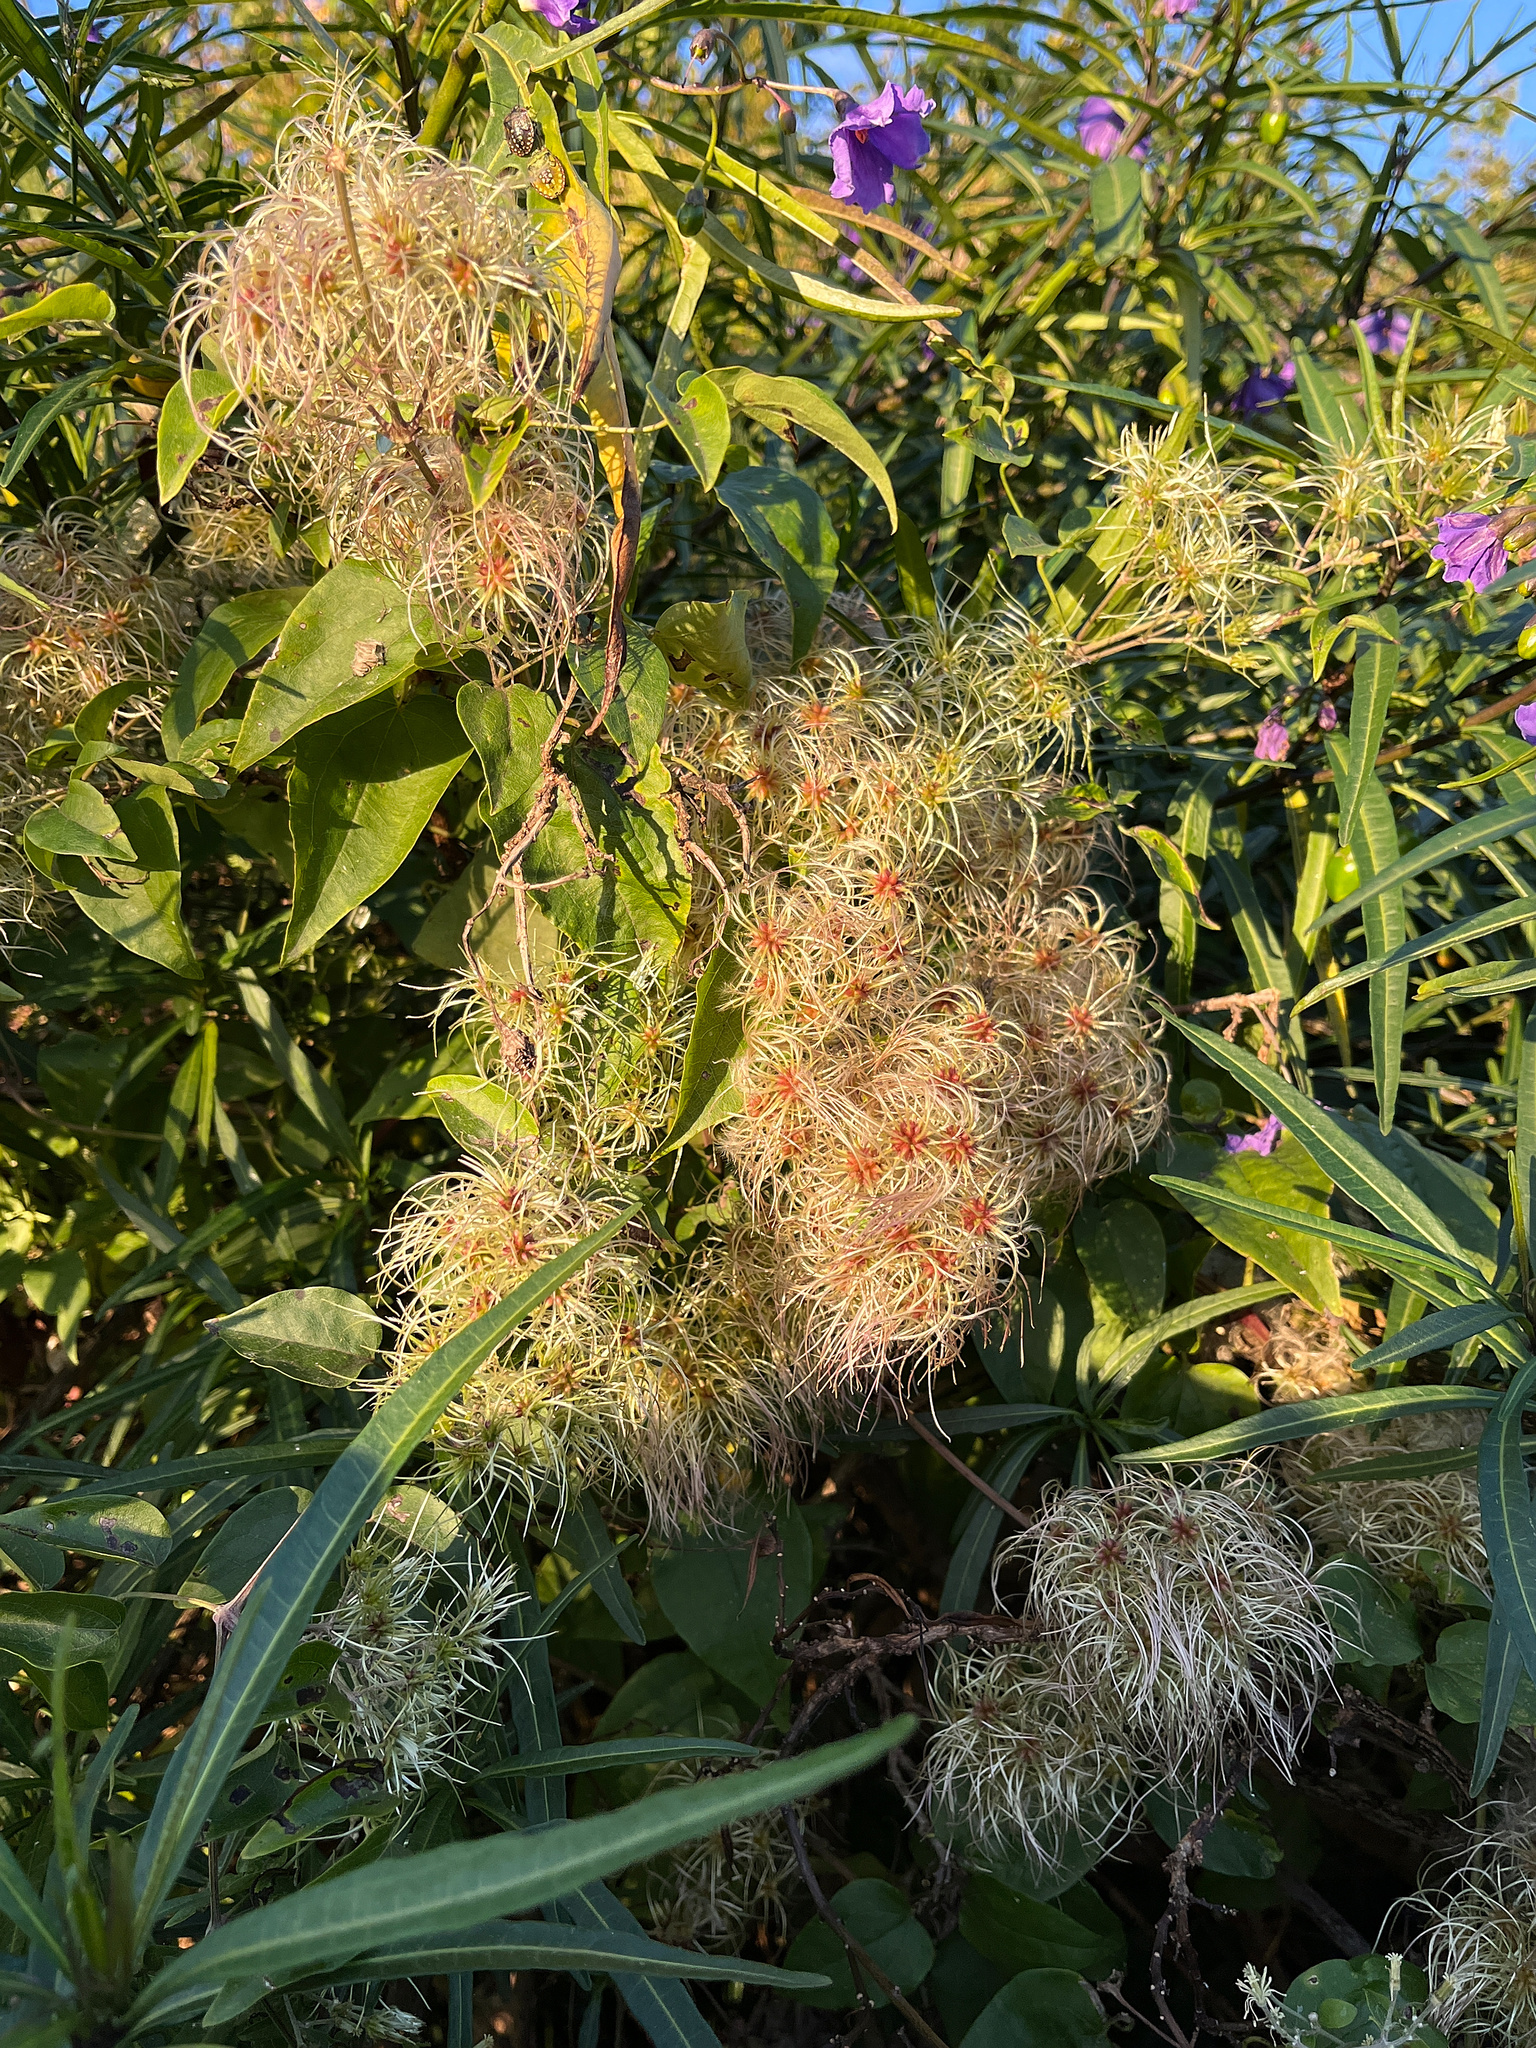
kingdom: Plantae
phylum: Tracheophyta
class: Magnoliopsida
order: Ranunculales
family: Ranunculaceae
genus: Clematis
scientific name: Clematis vitalba
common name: Evergreen clematis
